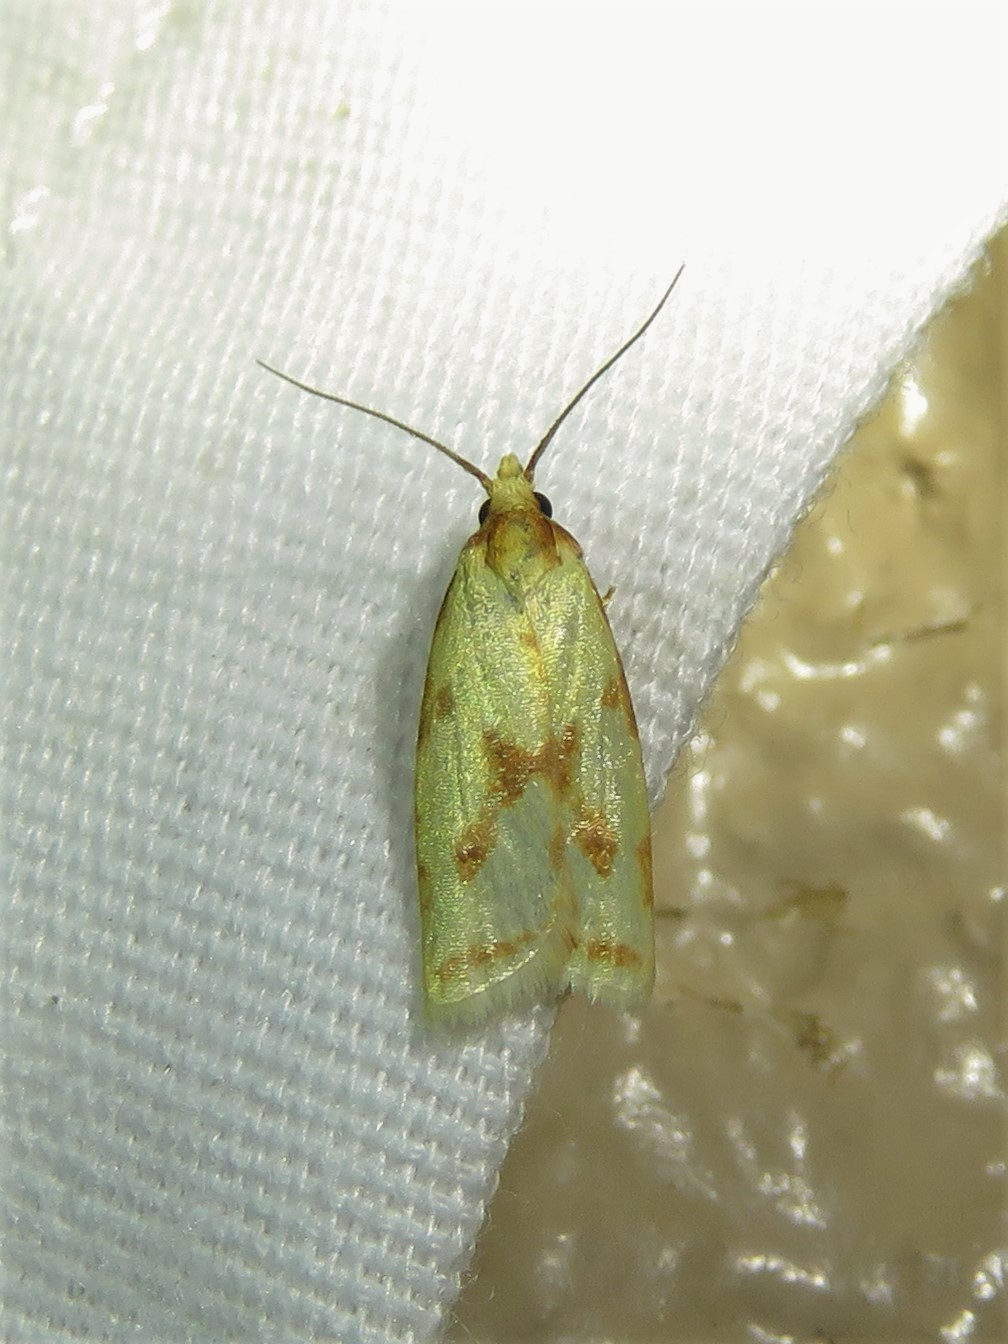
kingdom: Animalia
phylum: Arthropoda
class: Insecta
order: Lepidoptera
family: Tortricidae
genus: Sparganothis
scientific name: Sparganothis sulfureana
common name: Sparganothis fruitworm moth
